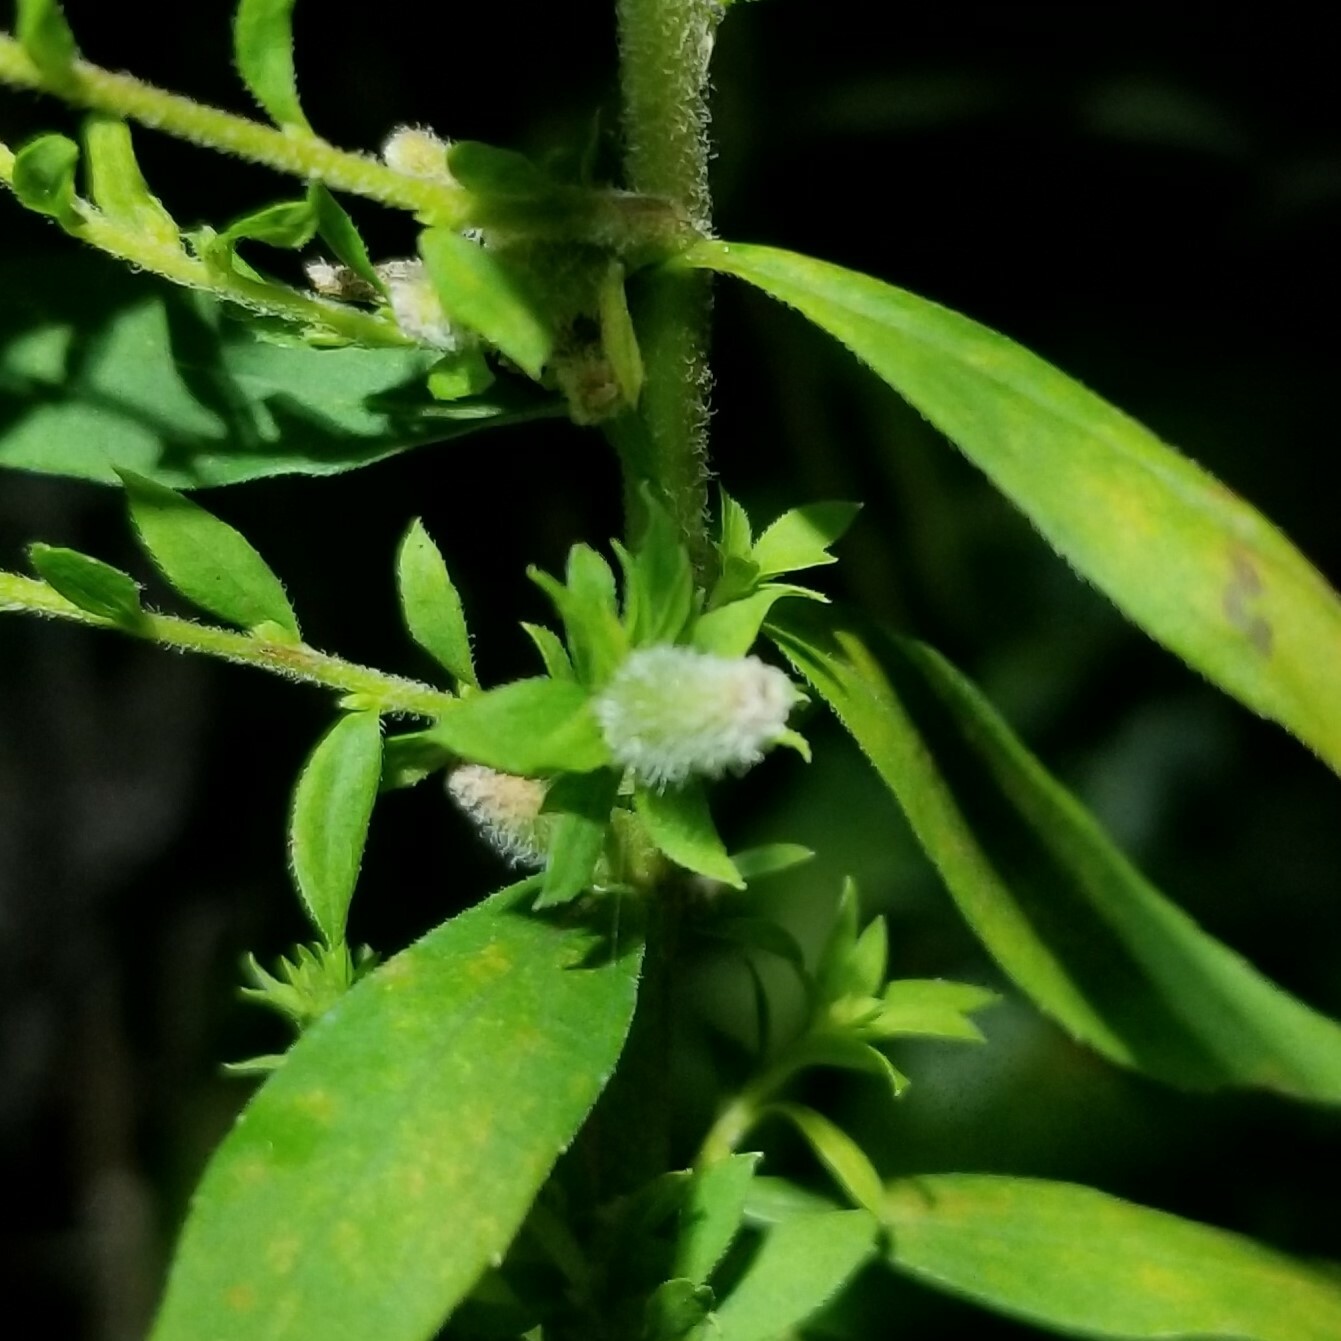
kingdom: Animalia
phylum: Arthropoda
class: Insecta
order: Diptera
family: Cecidomyiidae
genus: Rhopalomyia
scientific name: Rhopalomyia anthophila
